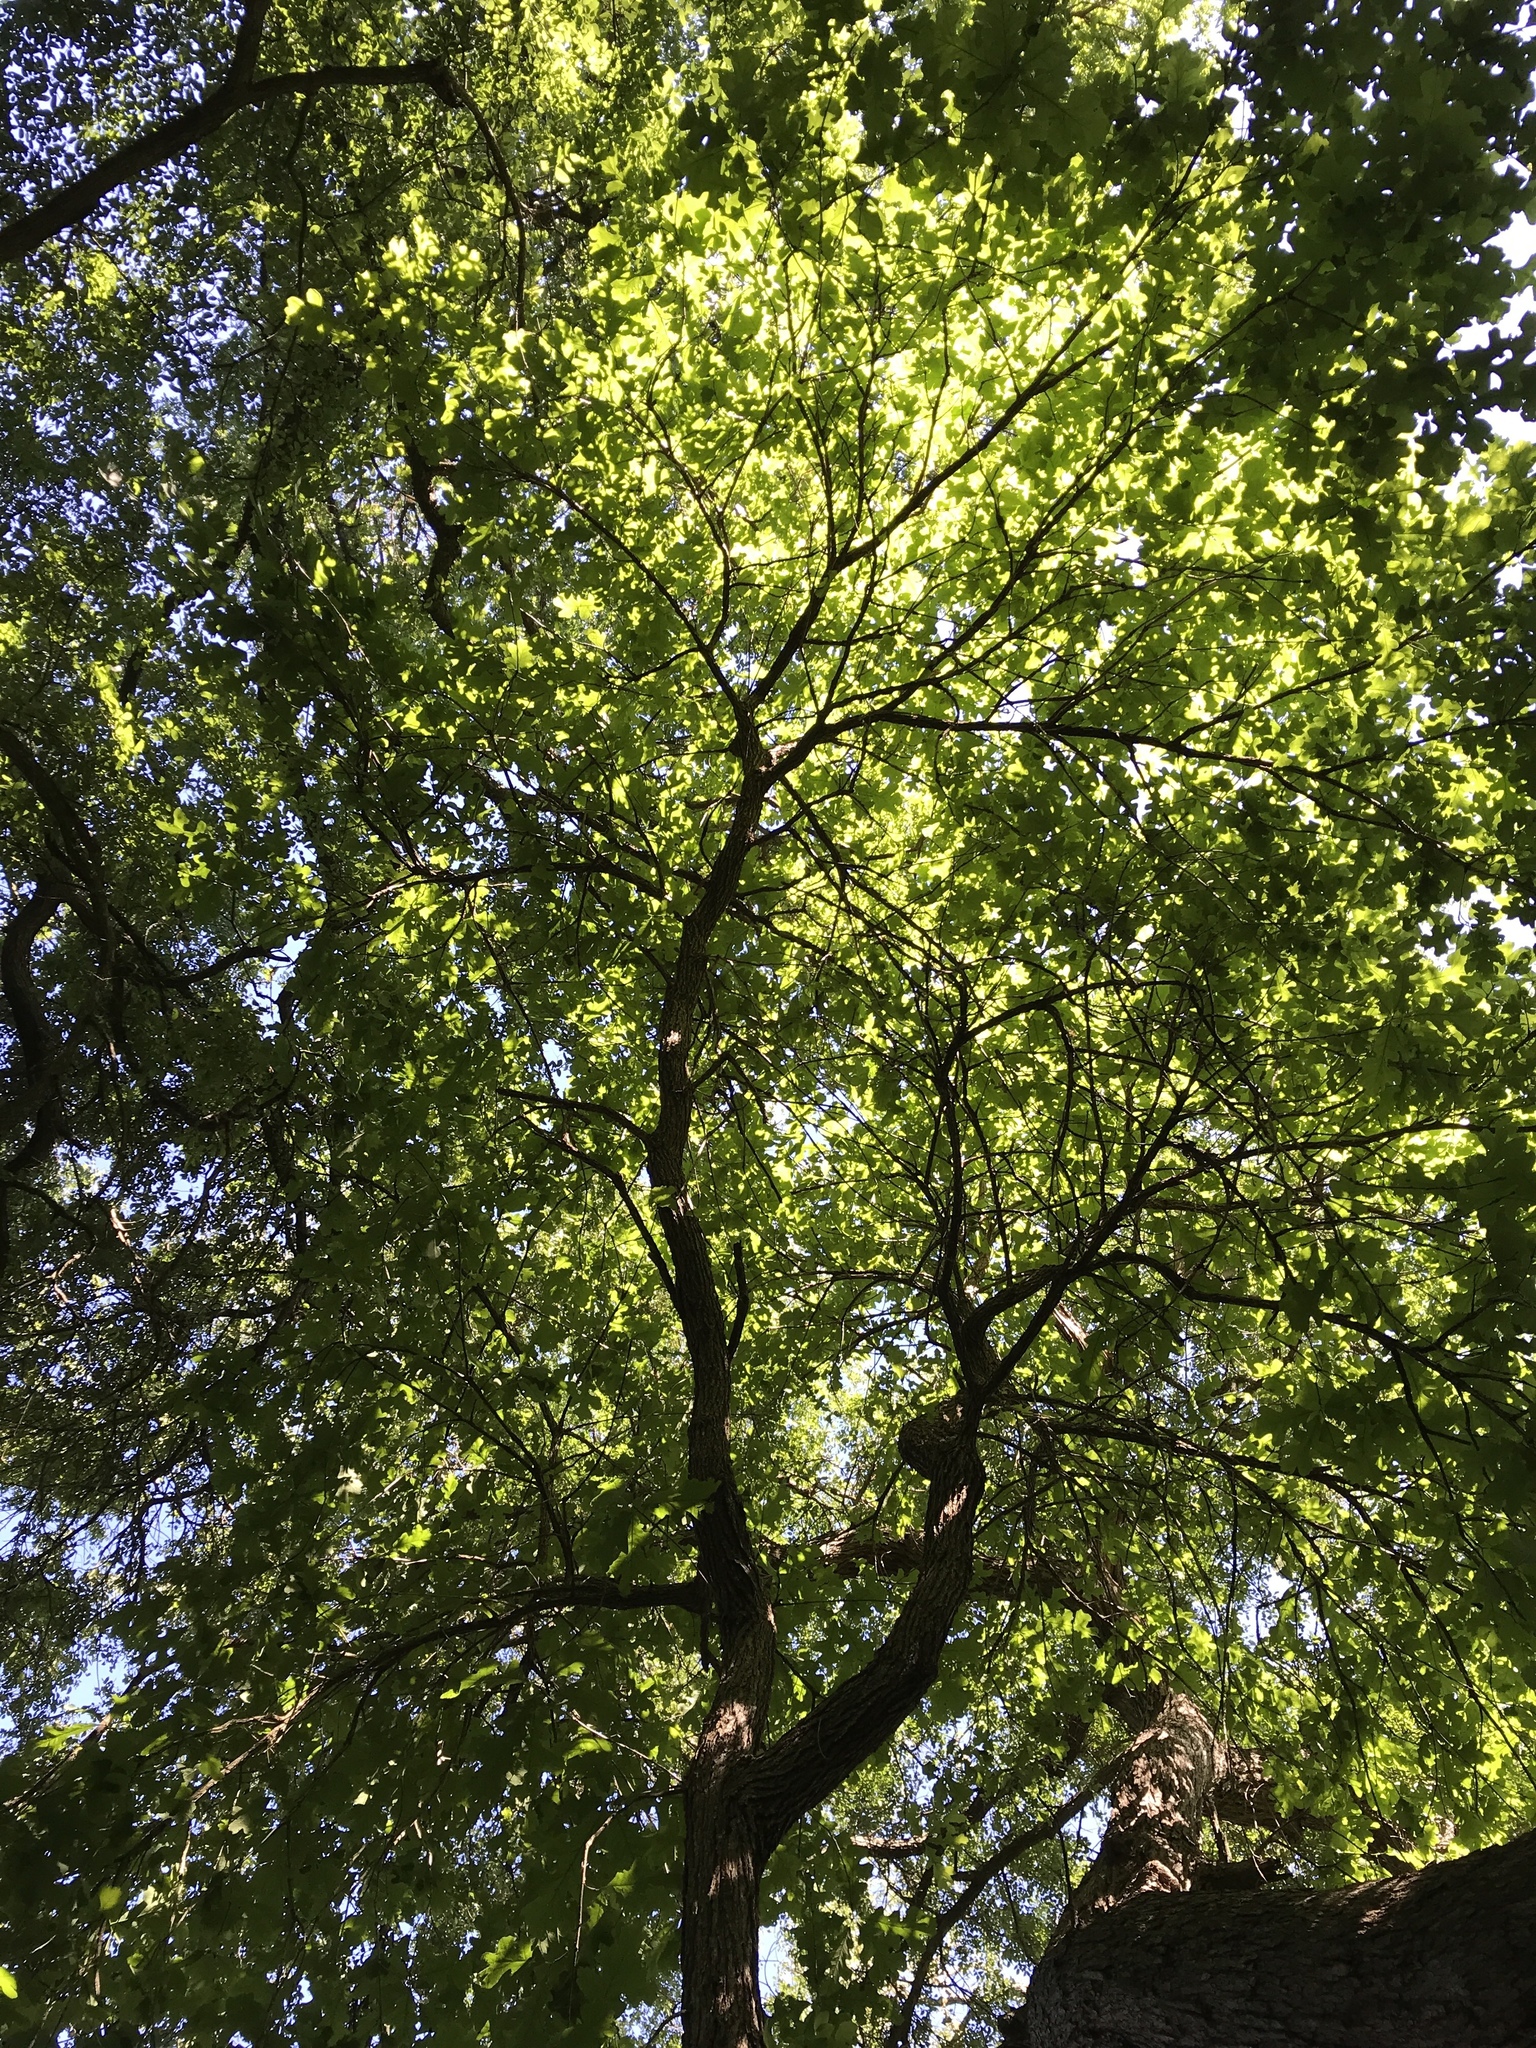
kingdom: Plantae
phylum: Tracheophyta
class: Magnoliopsida
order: Fagales
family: Fagaceae
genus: Quercus
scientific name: Quercus macrocarpa
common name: Bur oak
